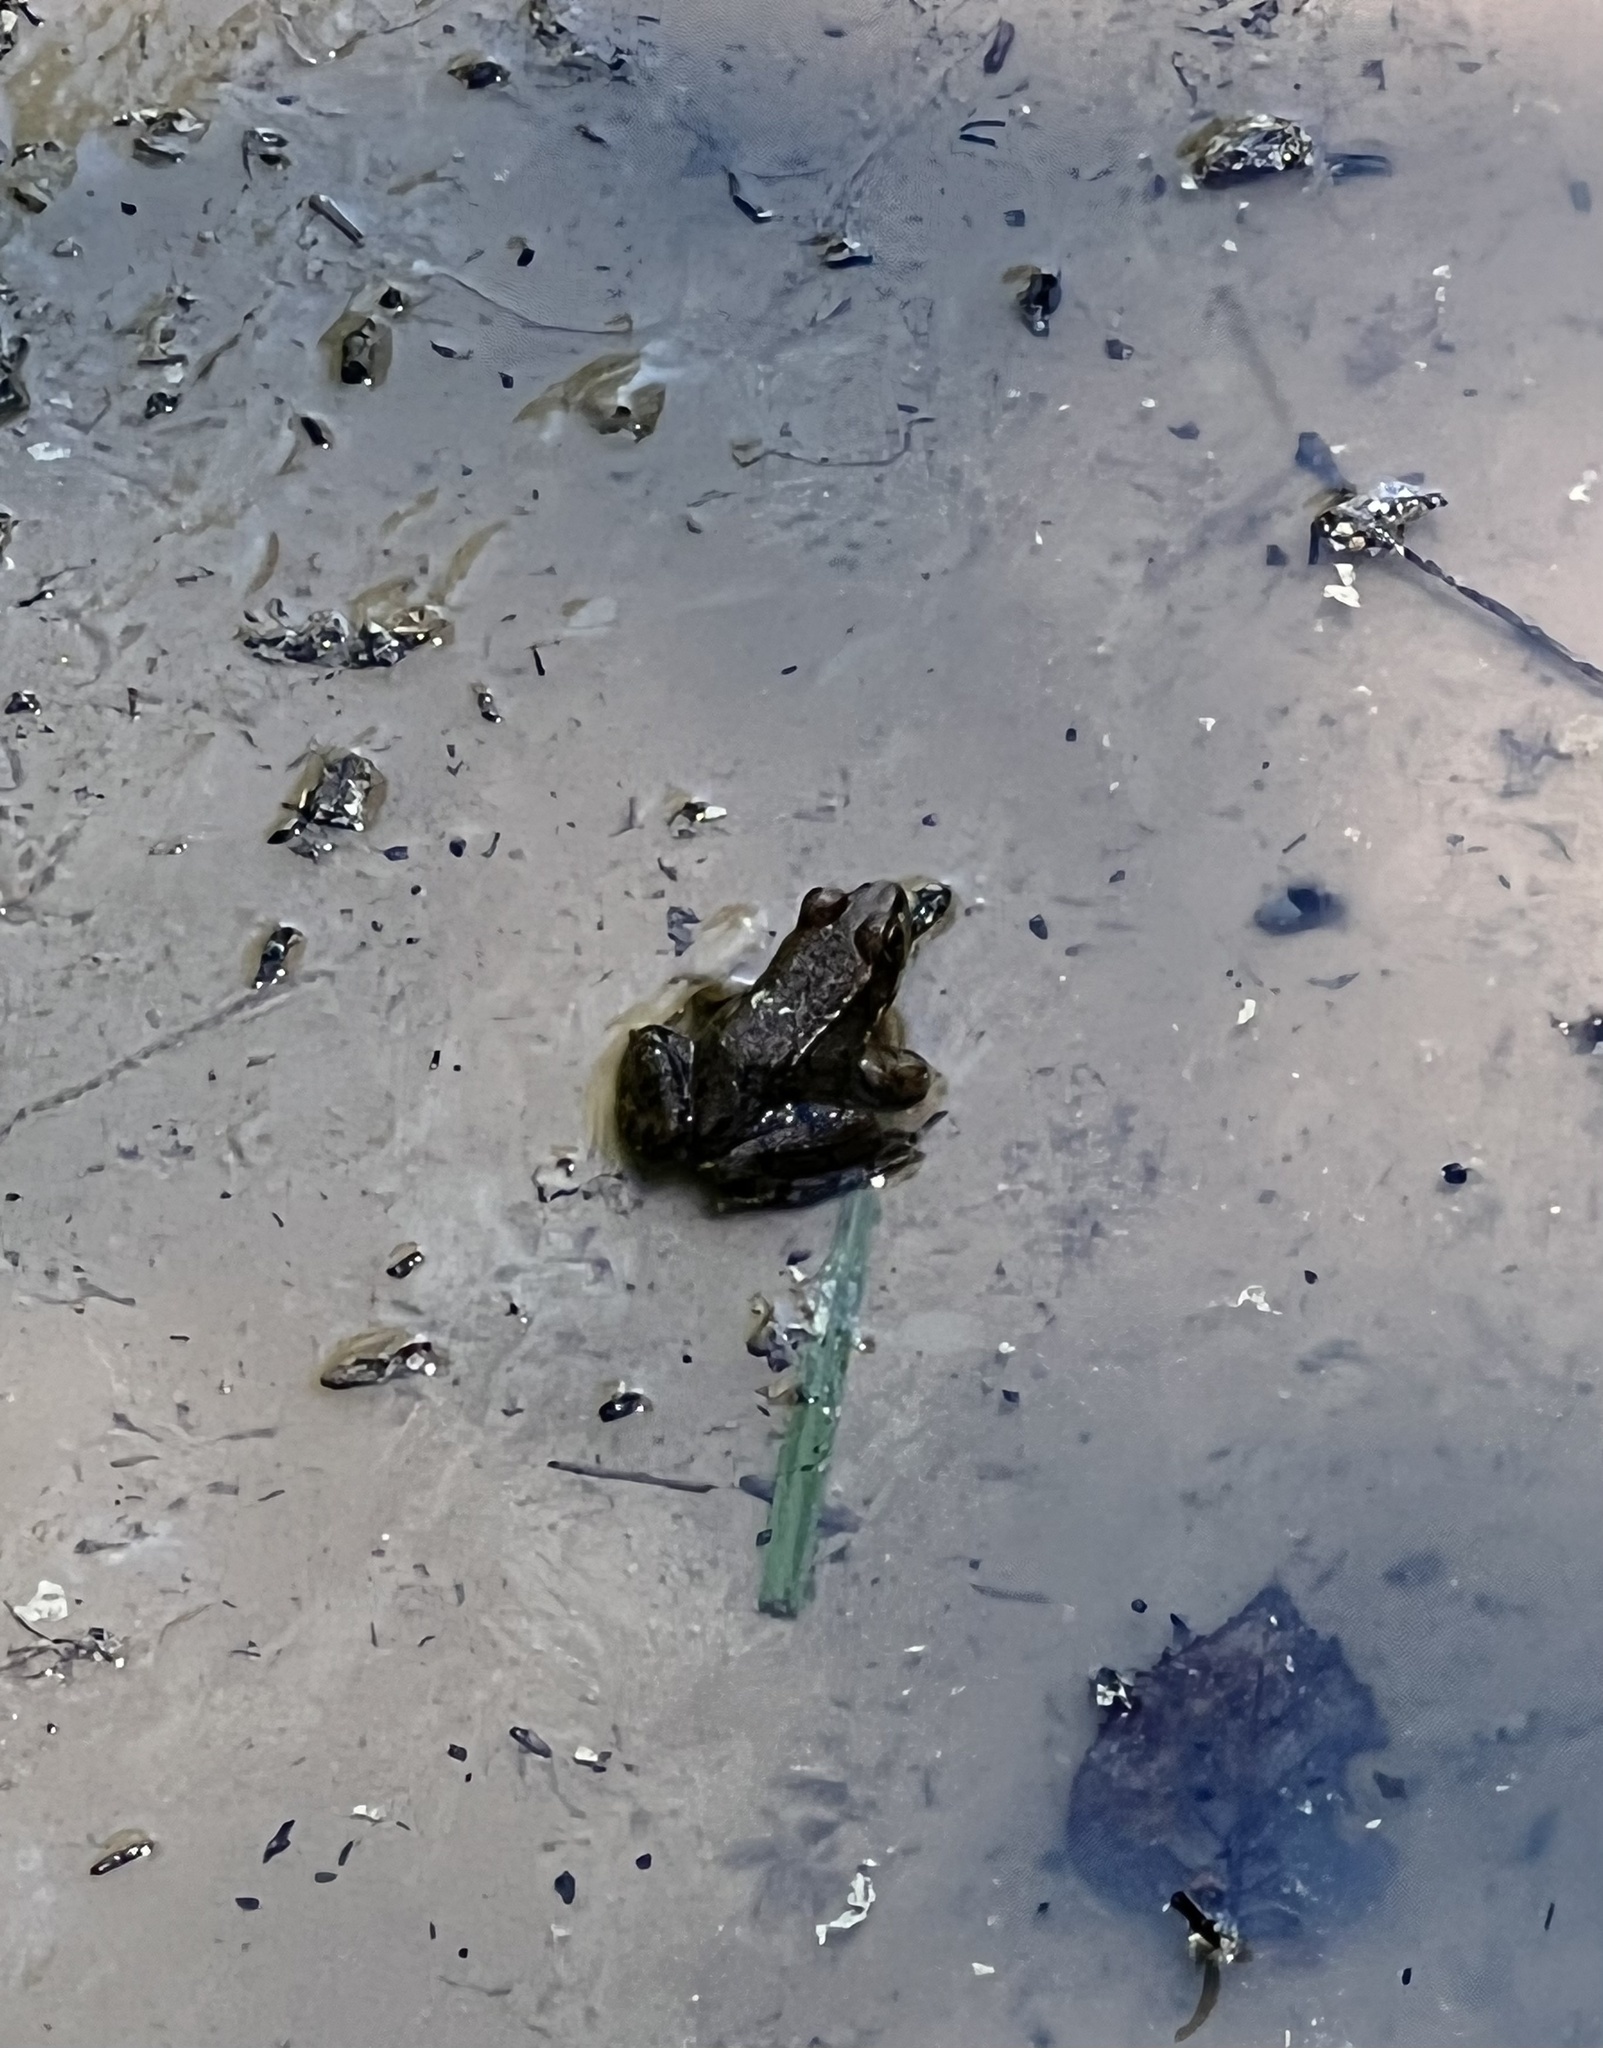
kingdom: Animalia
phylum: Chordata
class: Amphibia
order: Anura
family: Ranidae
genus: Lithobates
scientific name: Lithobates clamitans
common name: Green frog
